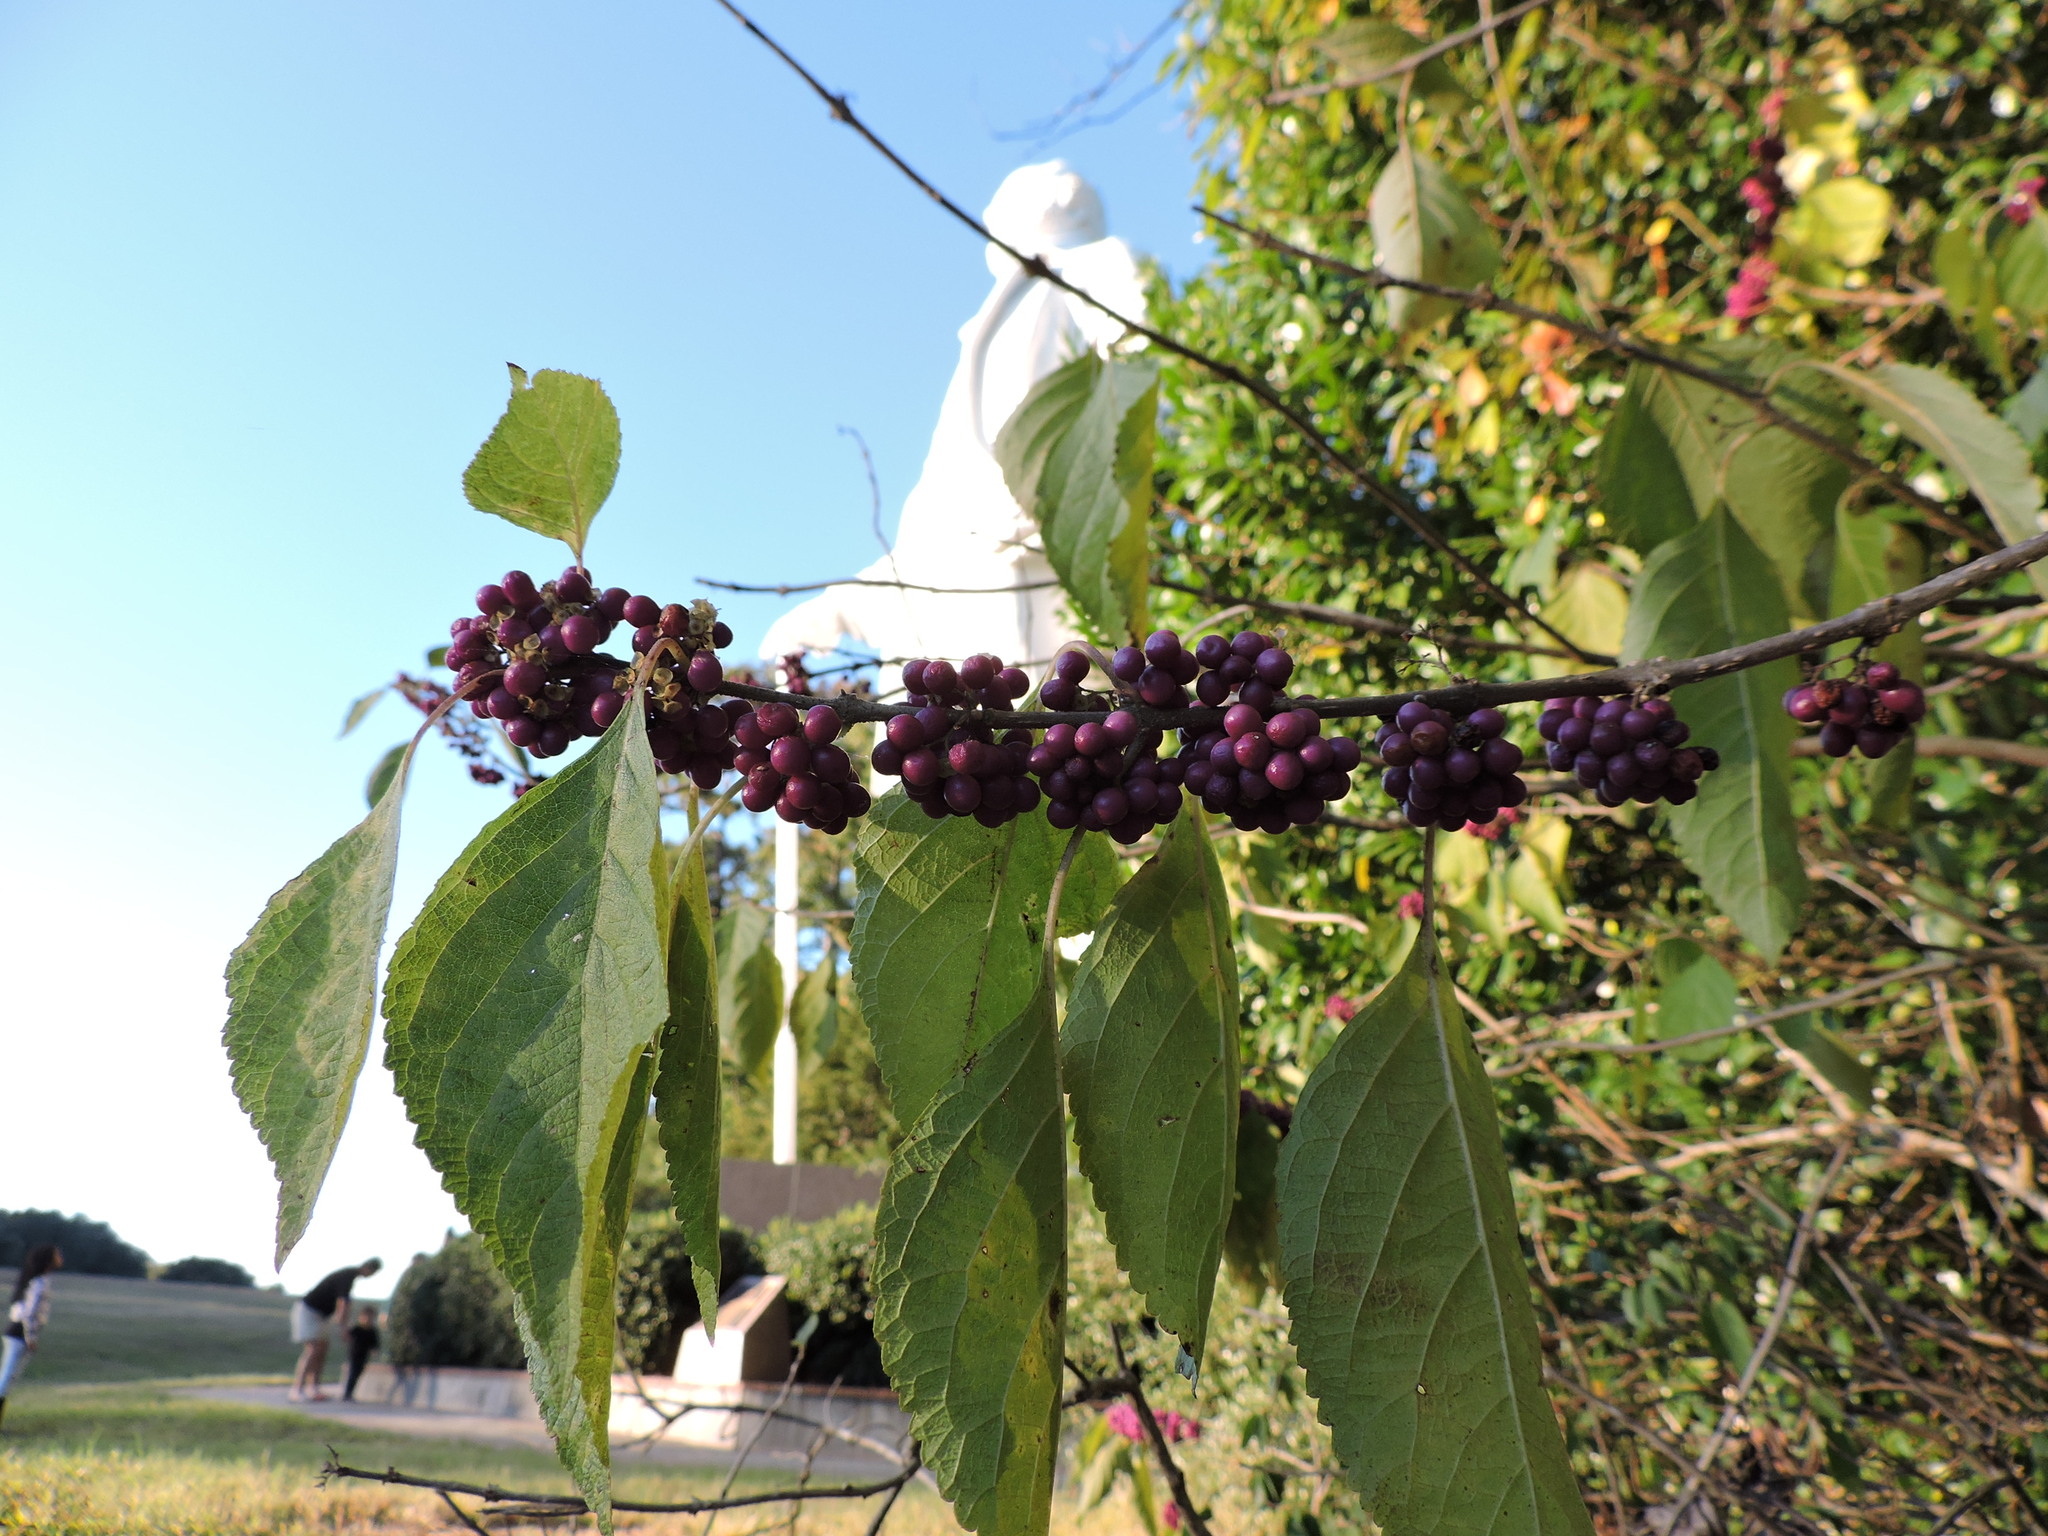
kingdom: Plantae
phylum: Tracheophyta
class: Magnoliopsida
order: Lamiales
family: Lamiaceae
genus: Callicarpa
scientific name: Callicarpa americana
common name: American beautyberry
